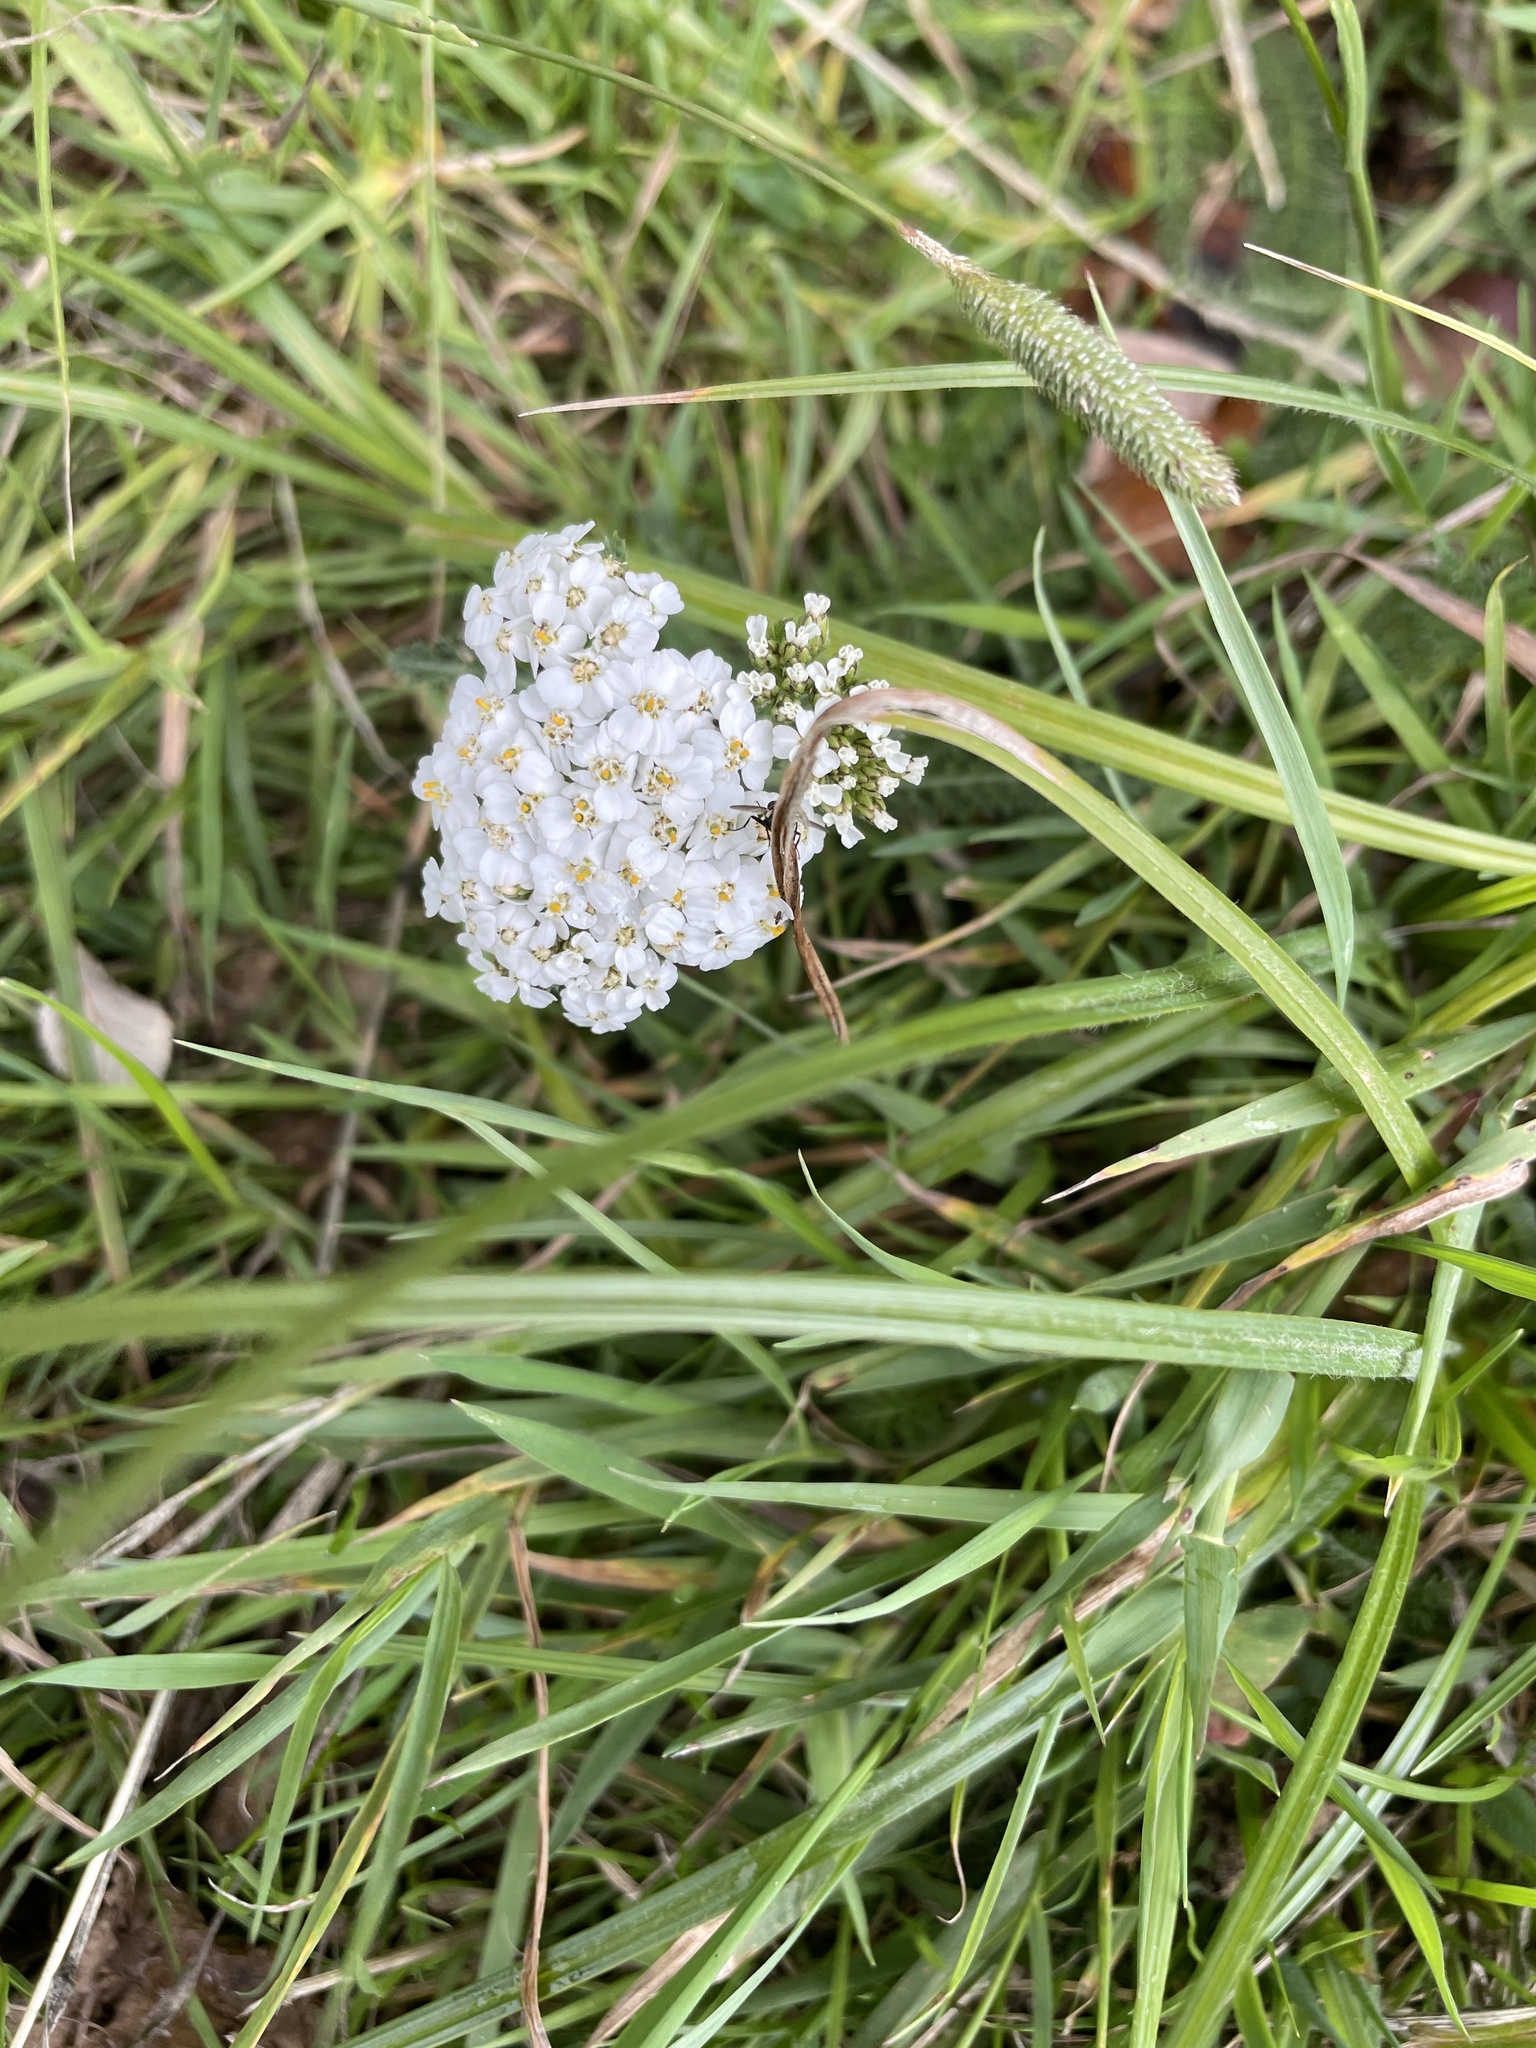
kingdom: Plantae
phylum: Tracheophyta
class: Magnoliopsida
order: Asterales
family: Asteraceae
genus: Achillea
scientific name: Achillea millefolium
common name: Yarrow
